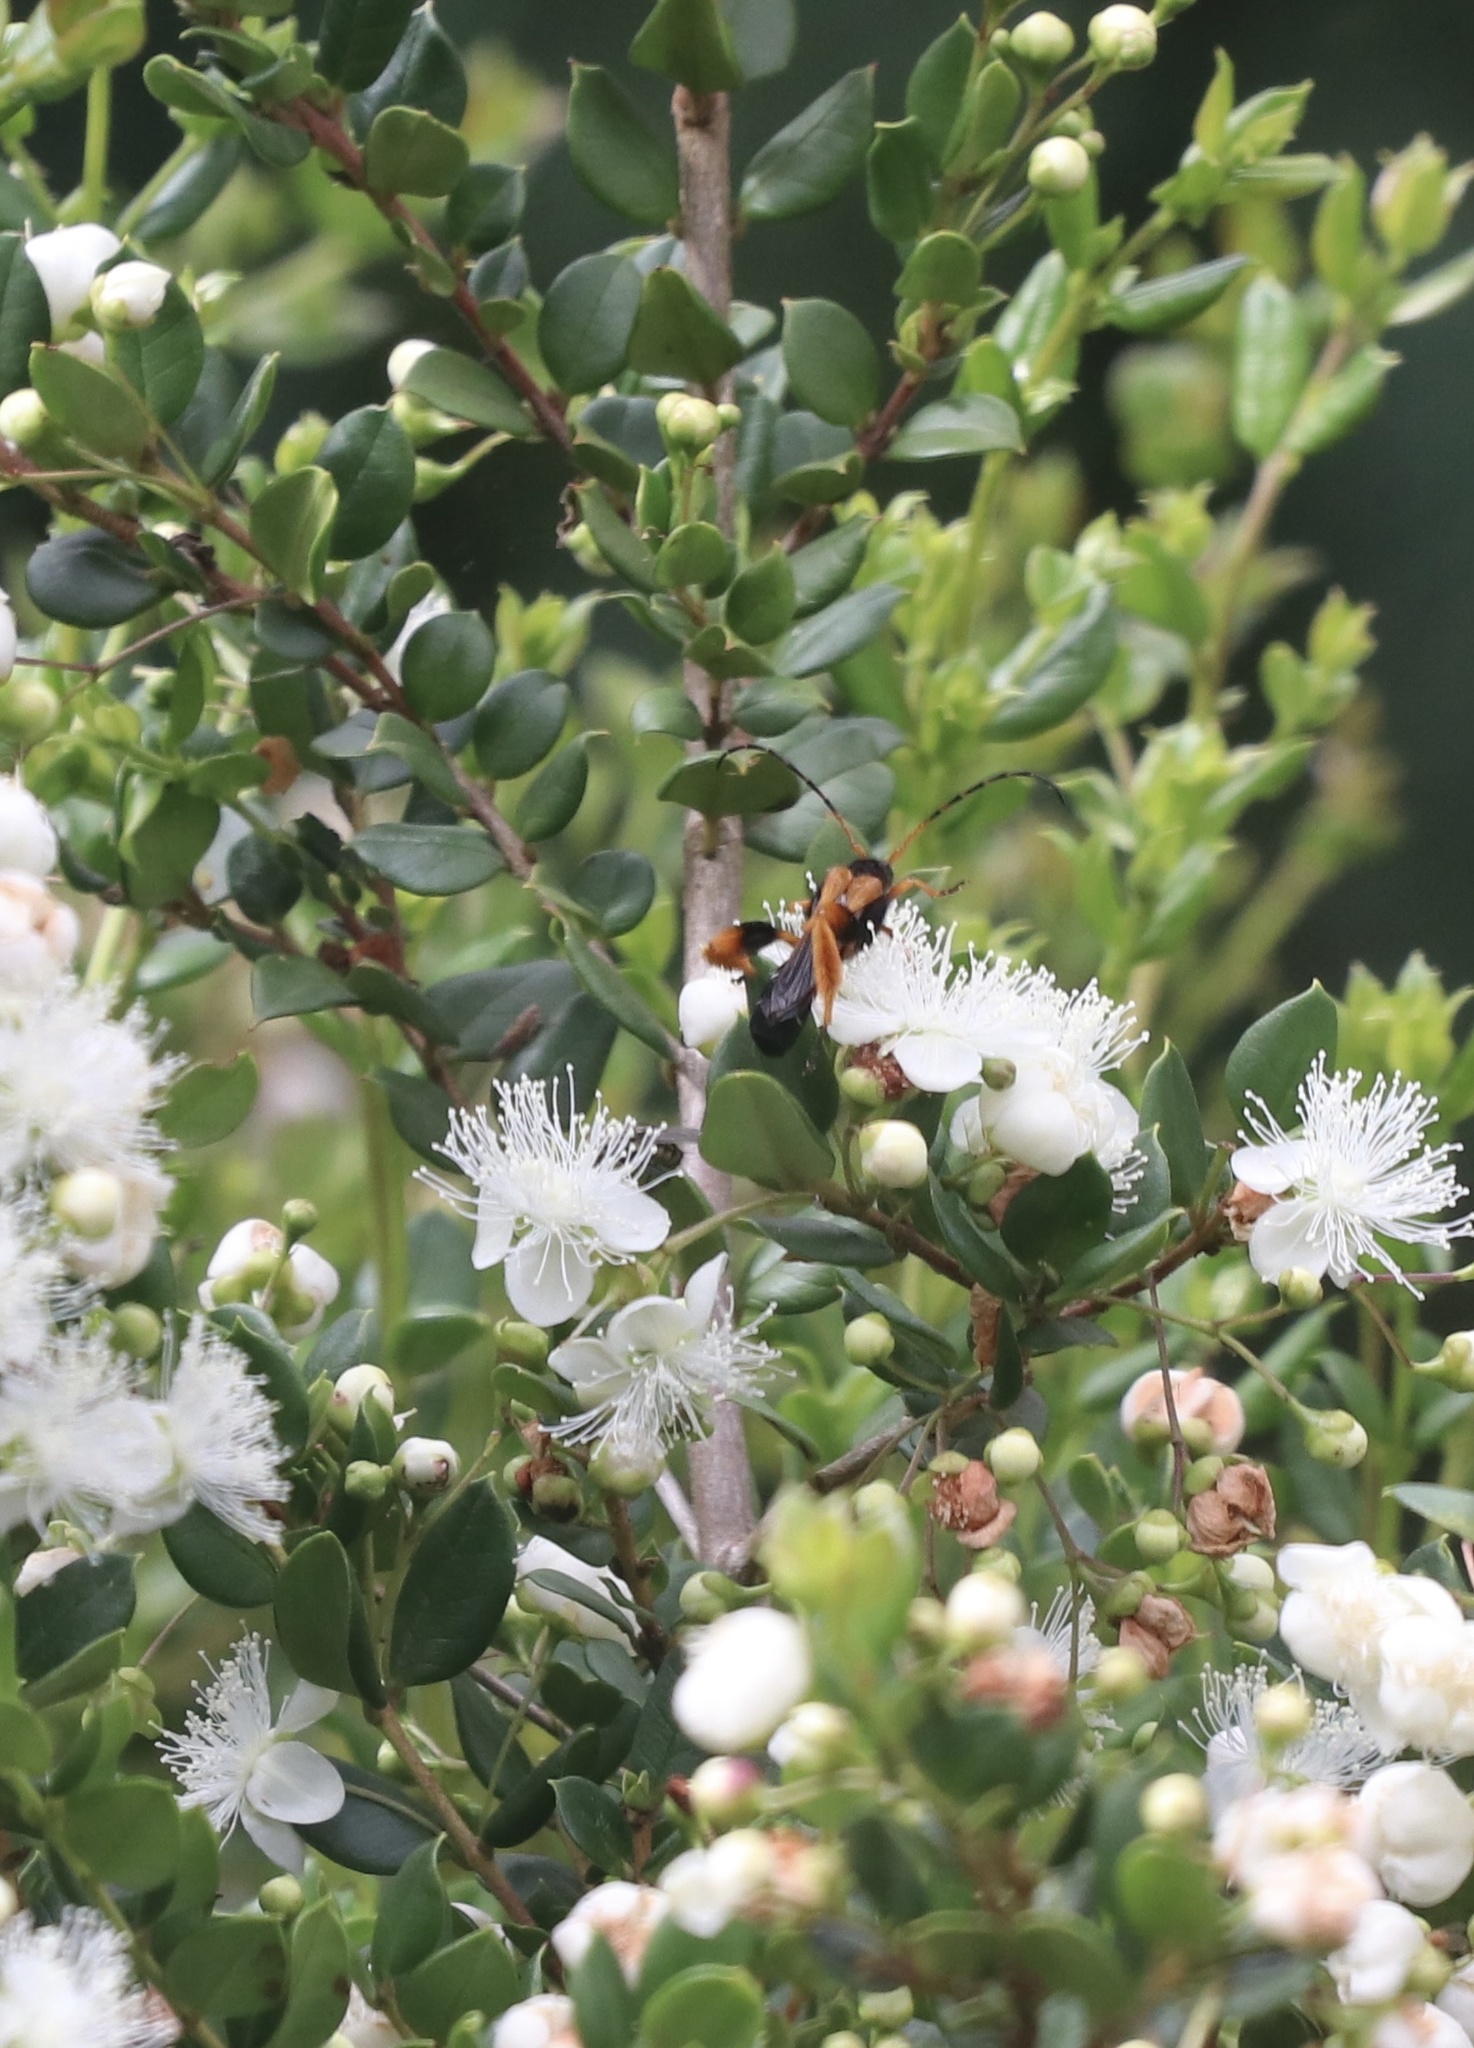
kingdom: Animalia
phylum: Arthropoda
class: Insecta
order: Coleoptera
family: Cerambycidae
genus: Callisphyris
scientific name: Callisphyris macropus
